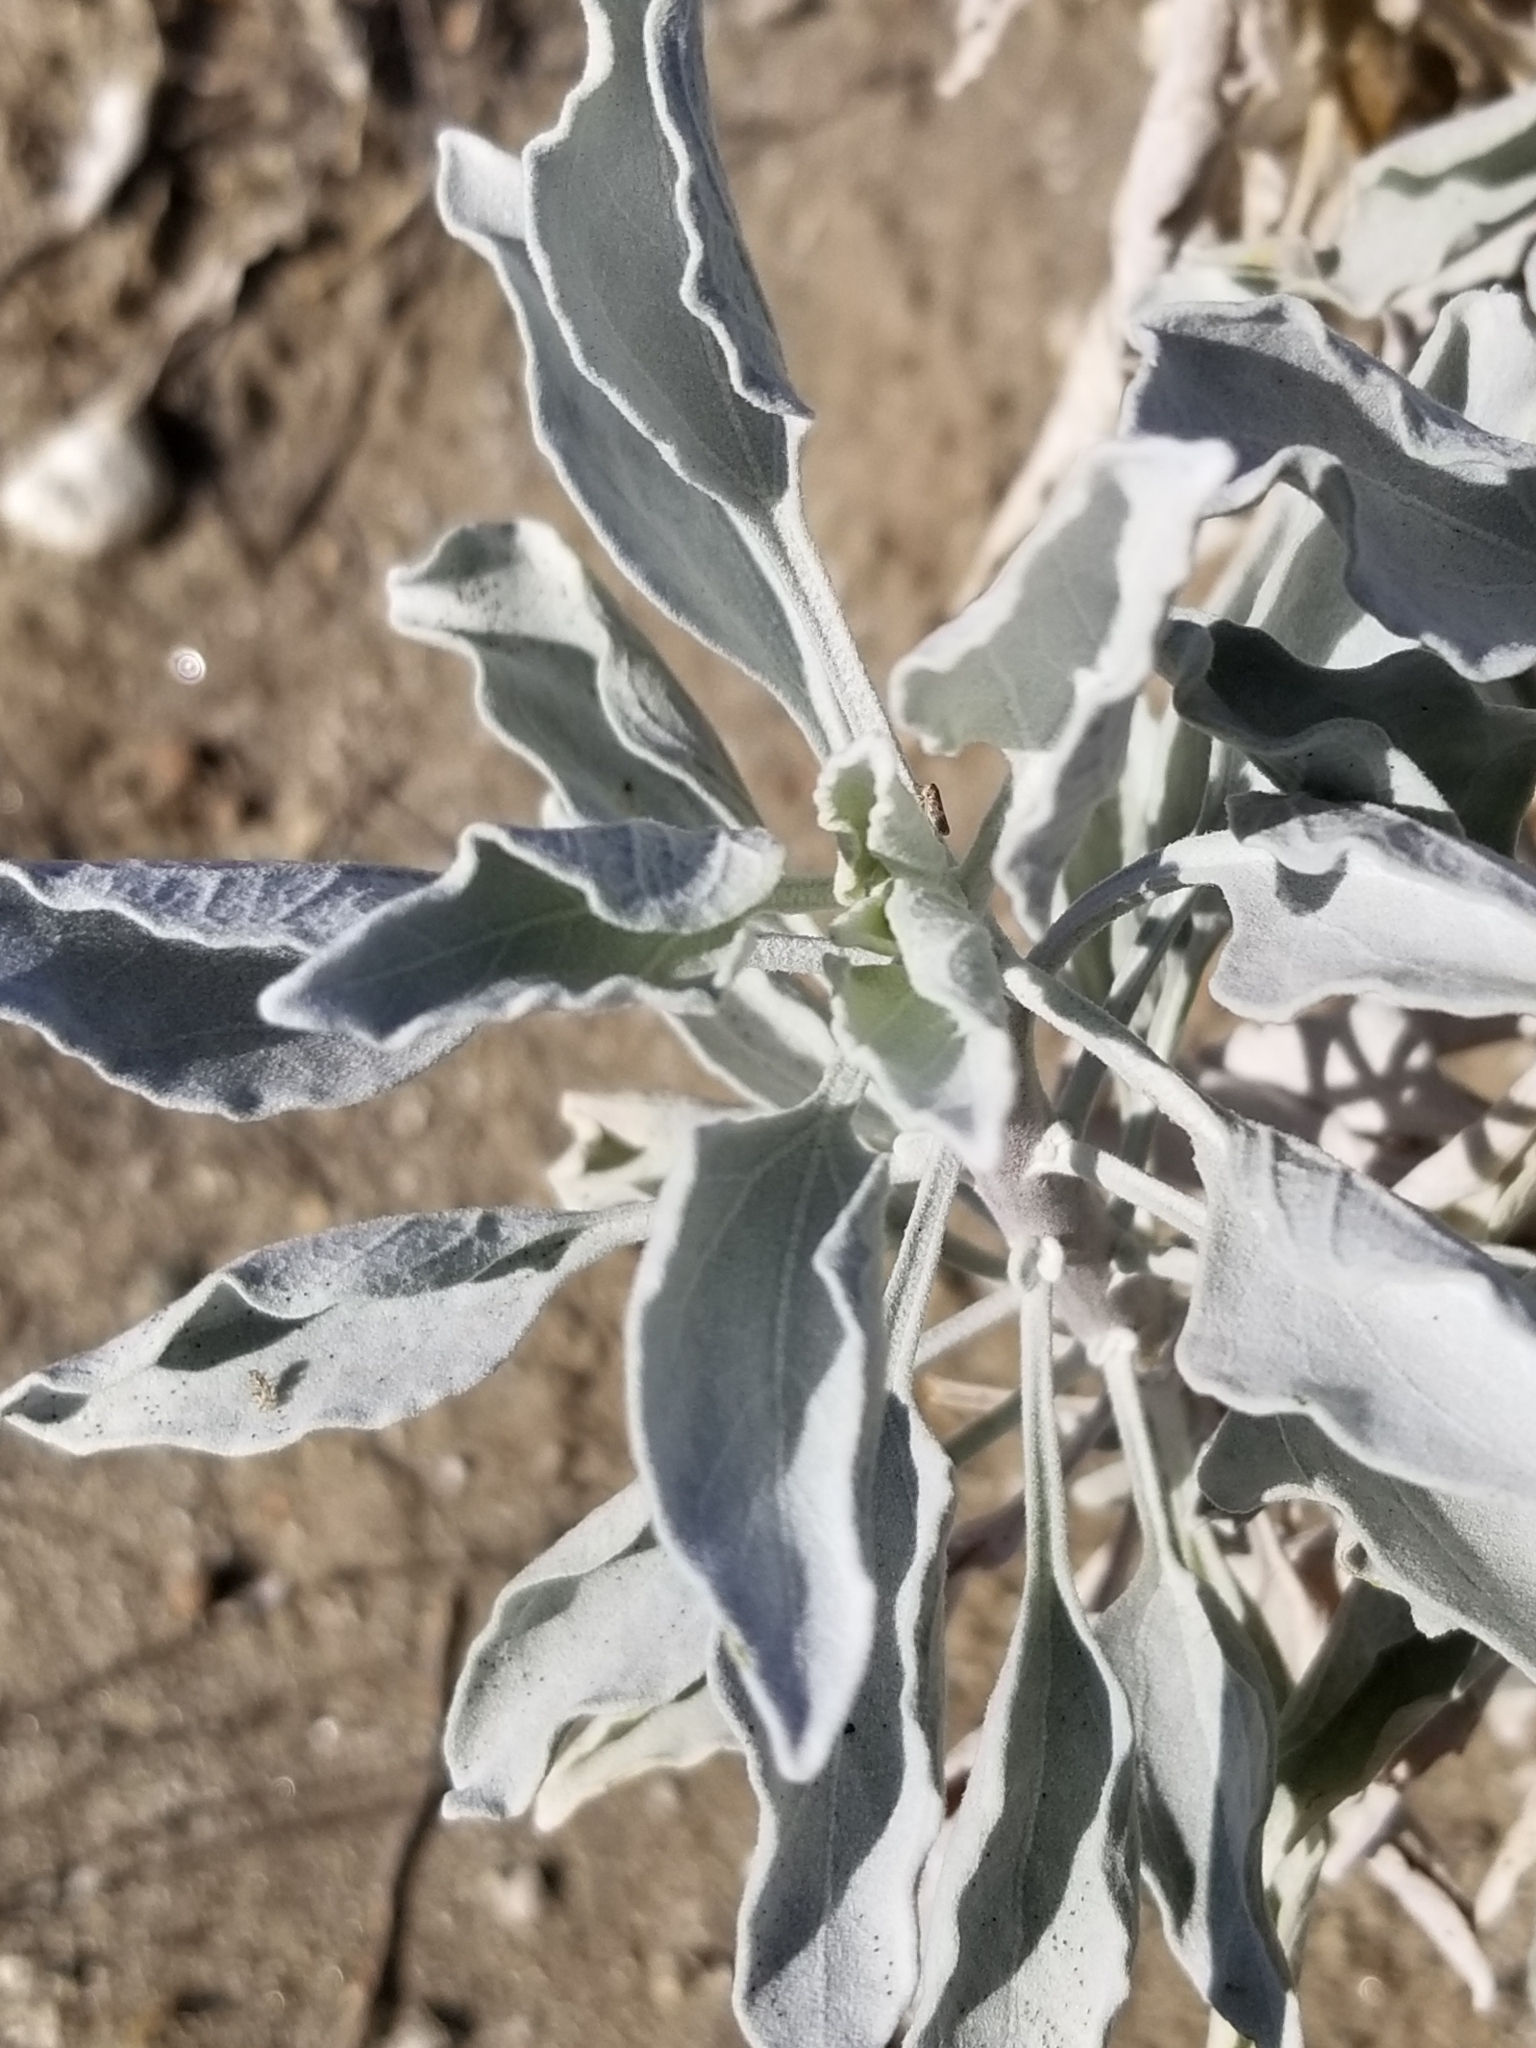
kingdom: Plantae
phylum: Tracheophyta
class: Magnoliopsida
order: Asterales
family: Asteraceae
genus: Encelia
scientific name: Encelia farinosa
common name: Brittlebush
